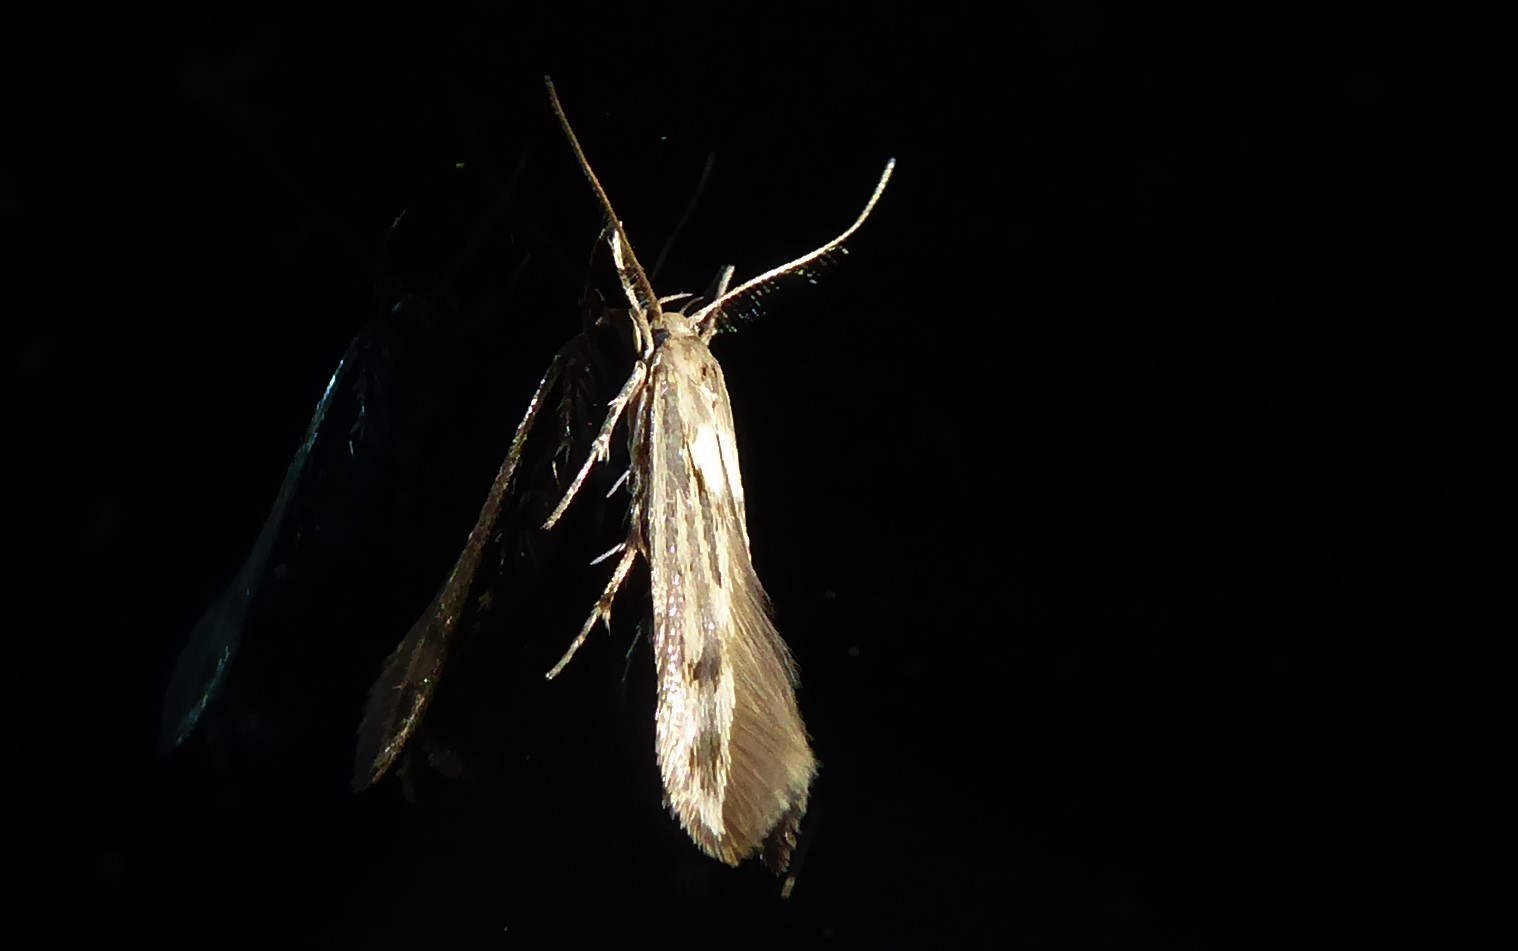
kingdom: Animalia
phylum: Arthropoda
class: Insecta
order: Lepidoptera
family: Stathmopodidae
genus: Stathmopoda
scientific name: Stathmopoda plumbiflua
